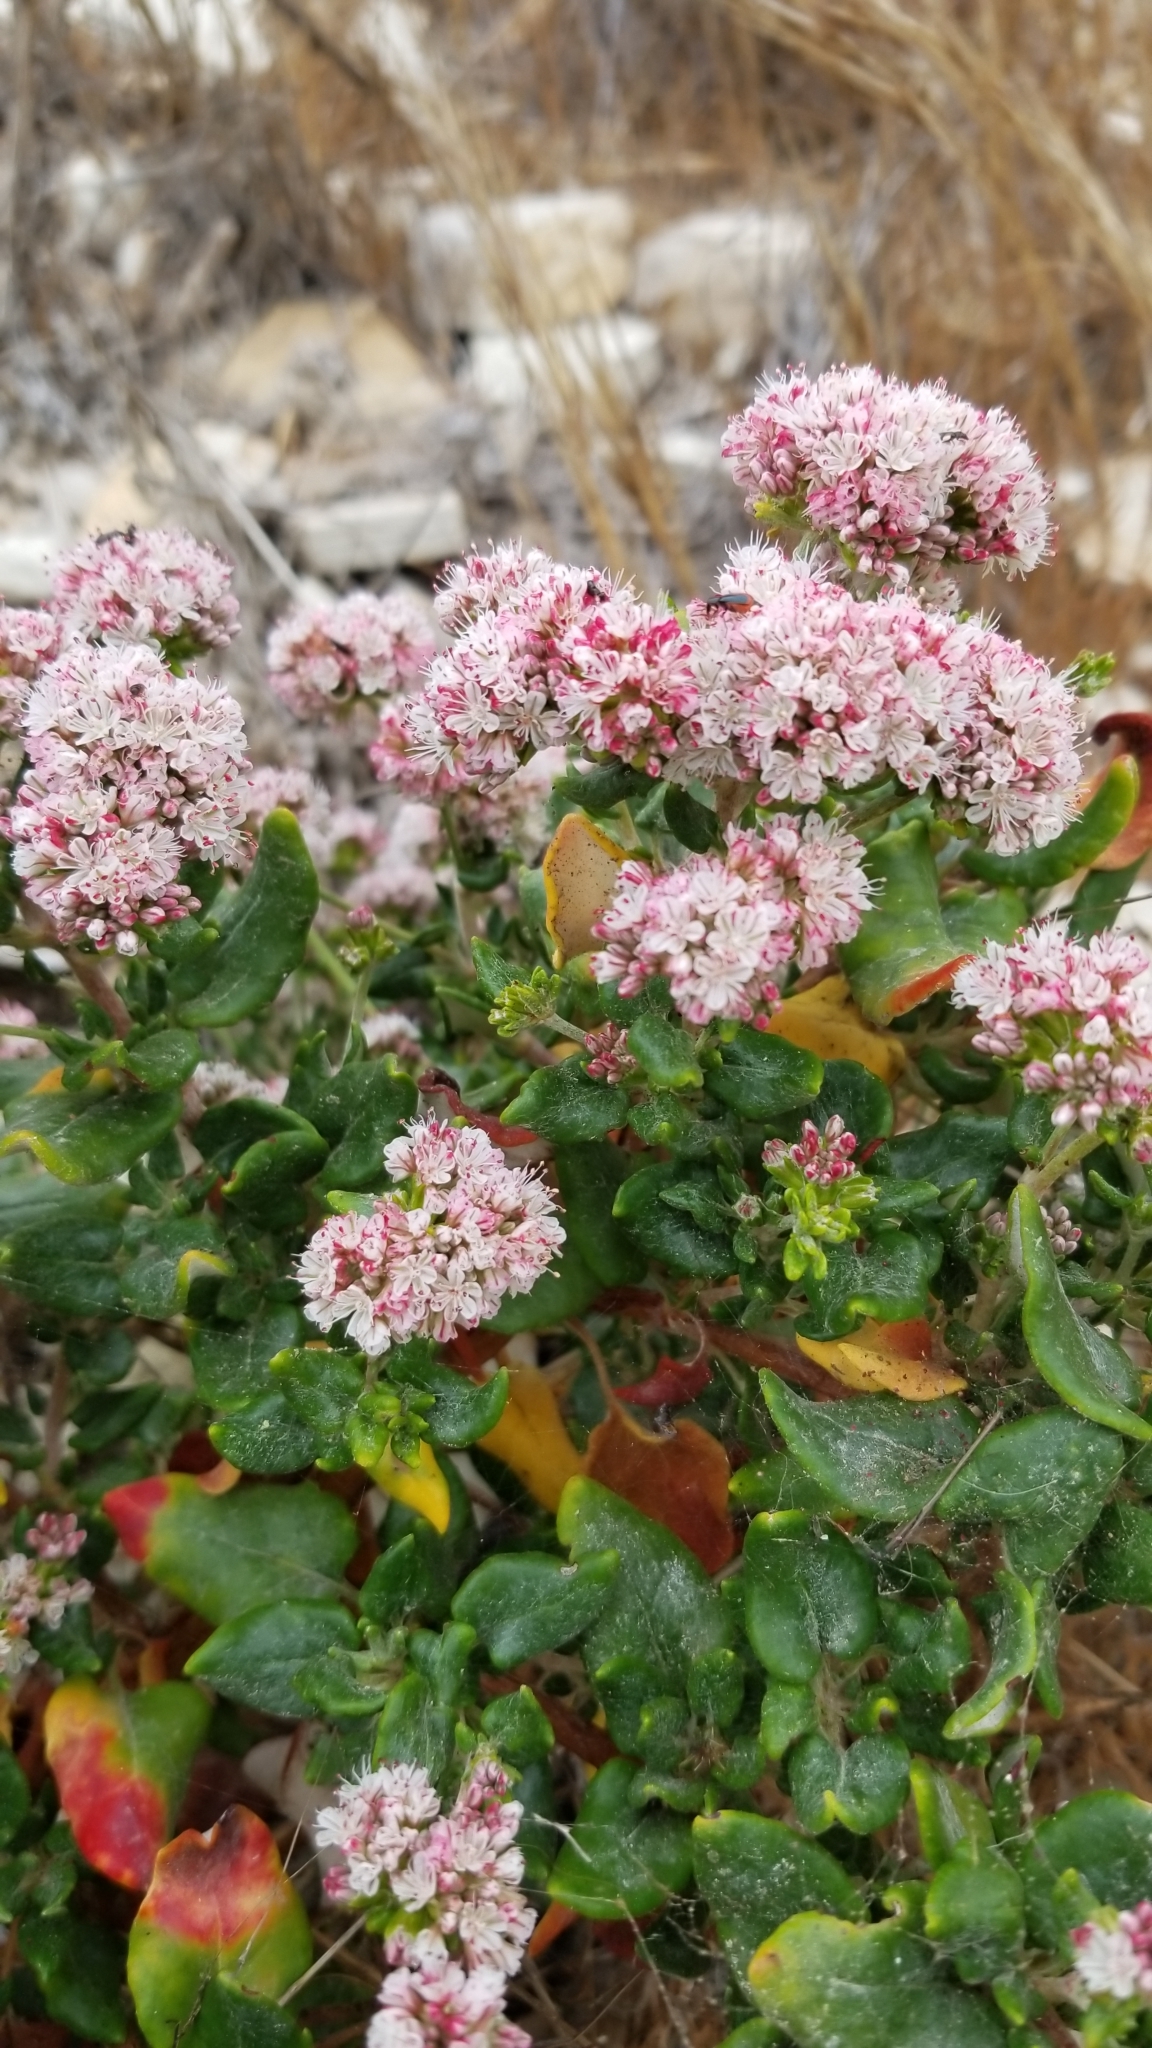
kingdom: Plantae
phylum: Tracheophyta
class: Magnoliopsida
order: Caryophyllales
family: Polygonaceae
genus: Eriogonum
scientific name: Eriogonum parvifolium
